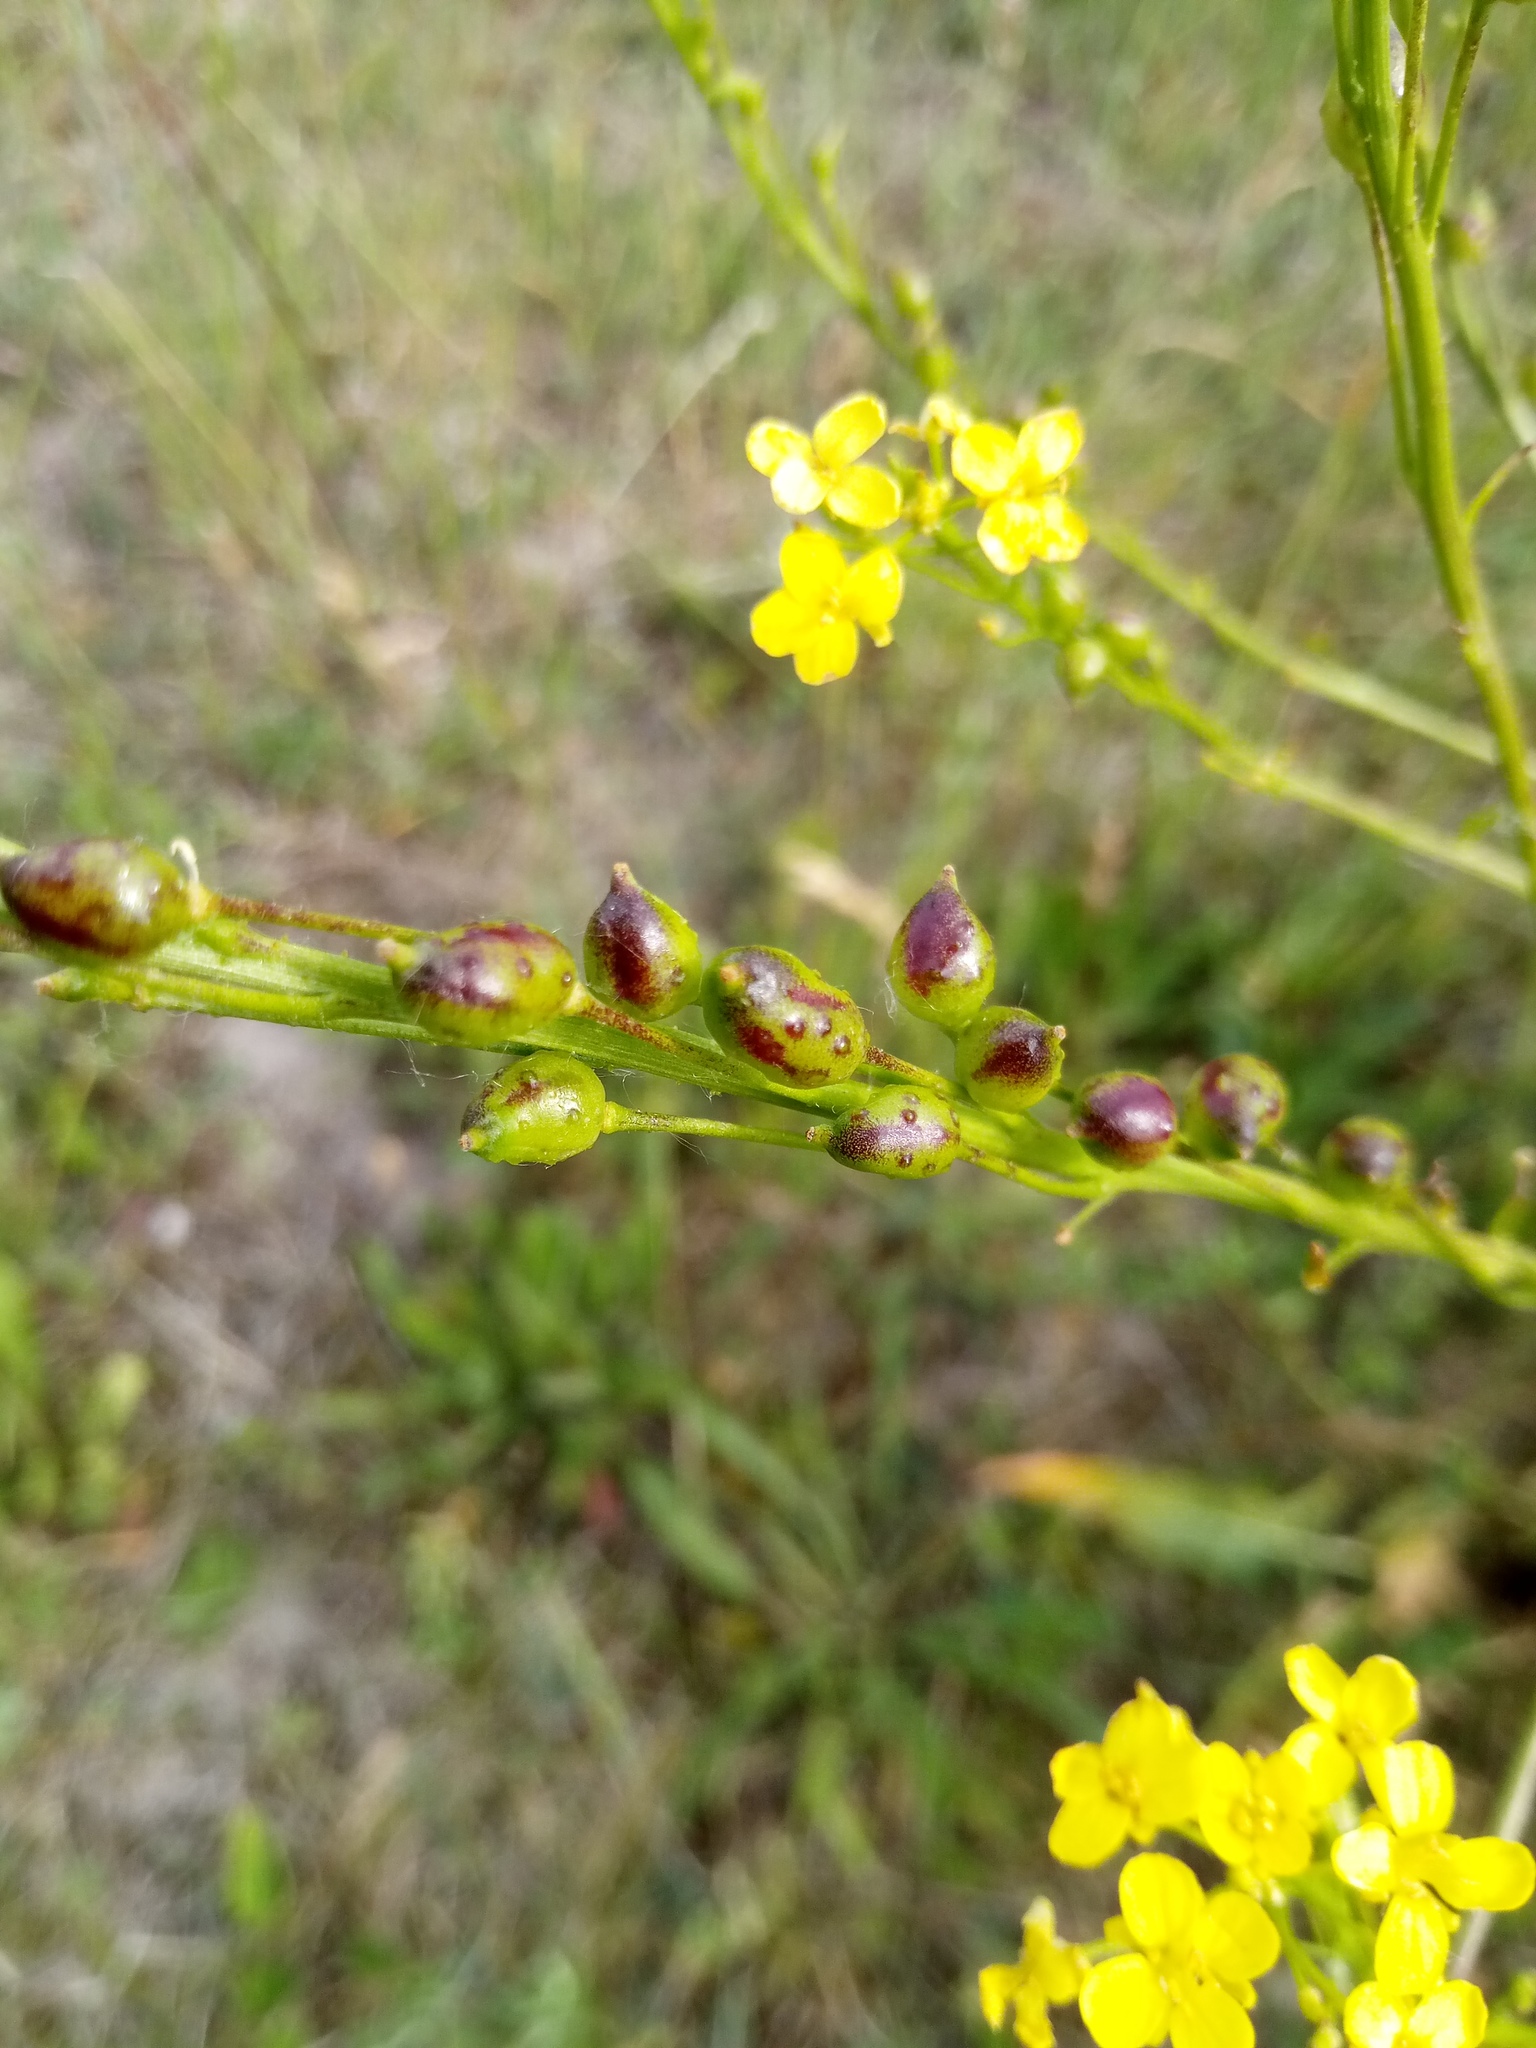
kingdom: Plantae
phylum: Tracheophyta
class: Magnoliopsida
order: Brassicales
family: Brassicaceae
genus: Bunias
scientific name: Bunias orientalis
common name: Warty-cabbage
